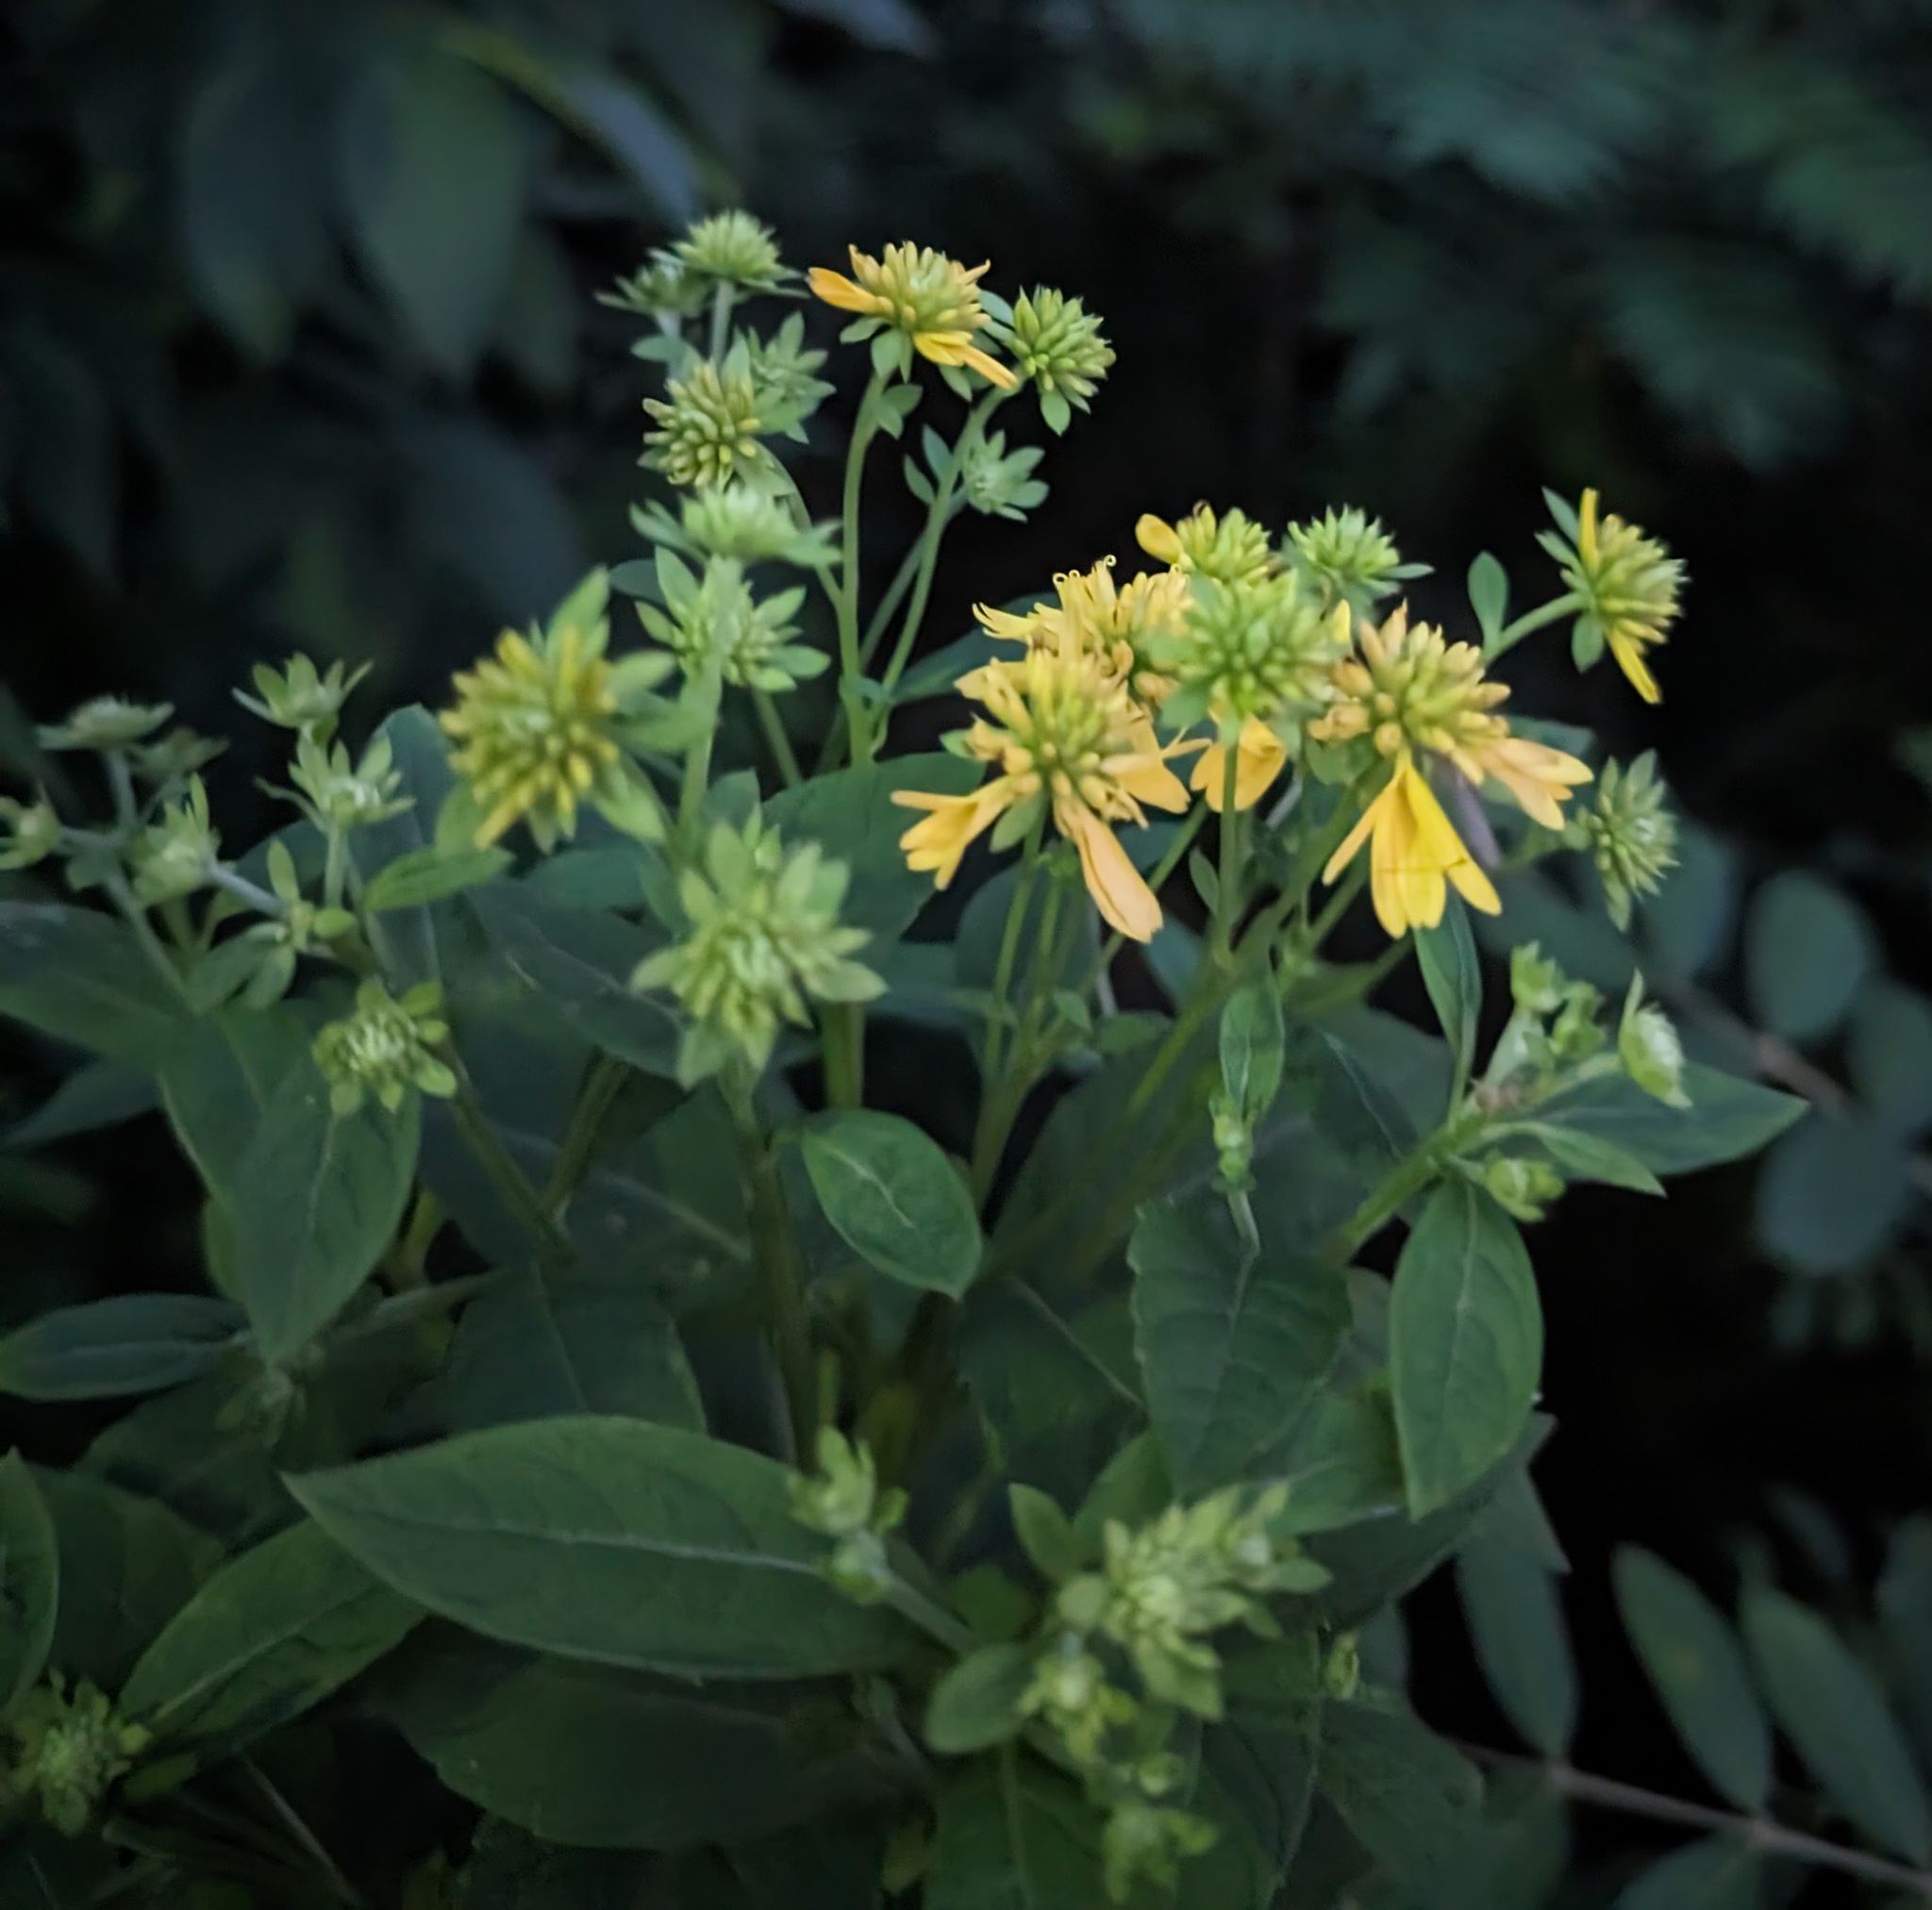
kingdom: Plantae
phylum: Tracheophyta
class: Magnoliopsida
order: Asterales
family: Asteraceae
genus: Verbesina
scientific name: Verbesina alternifolia
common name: Wingstem
